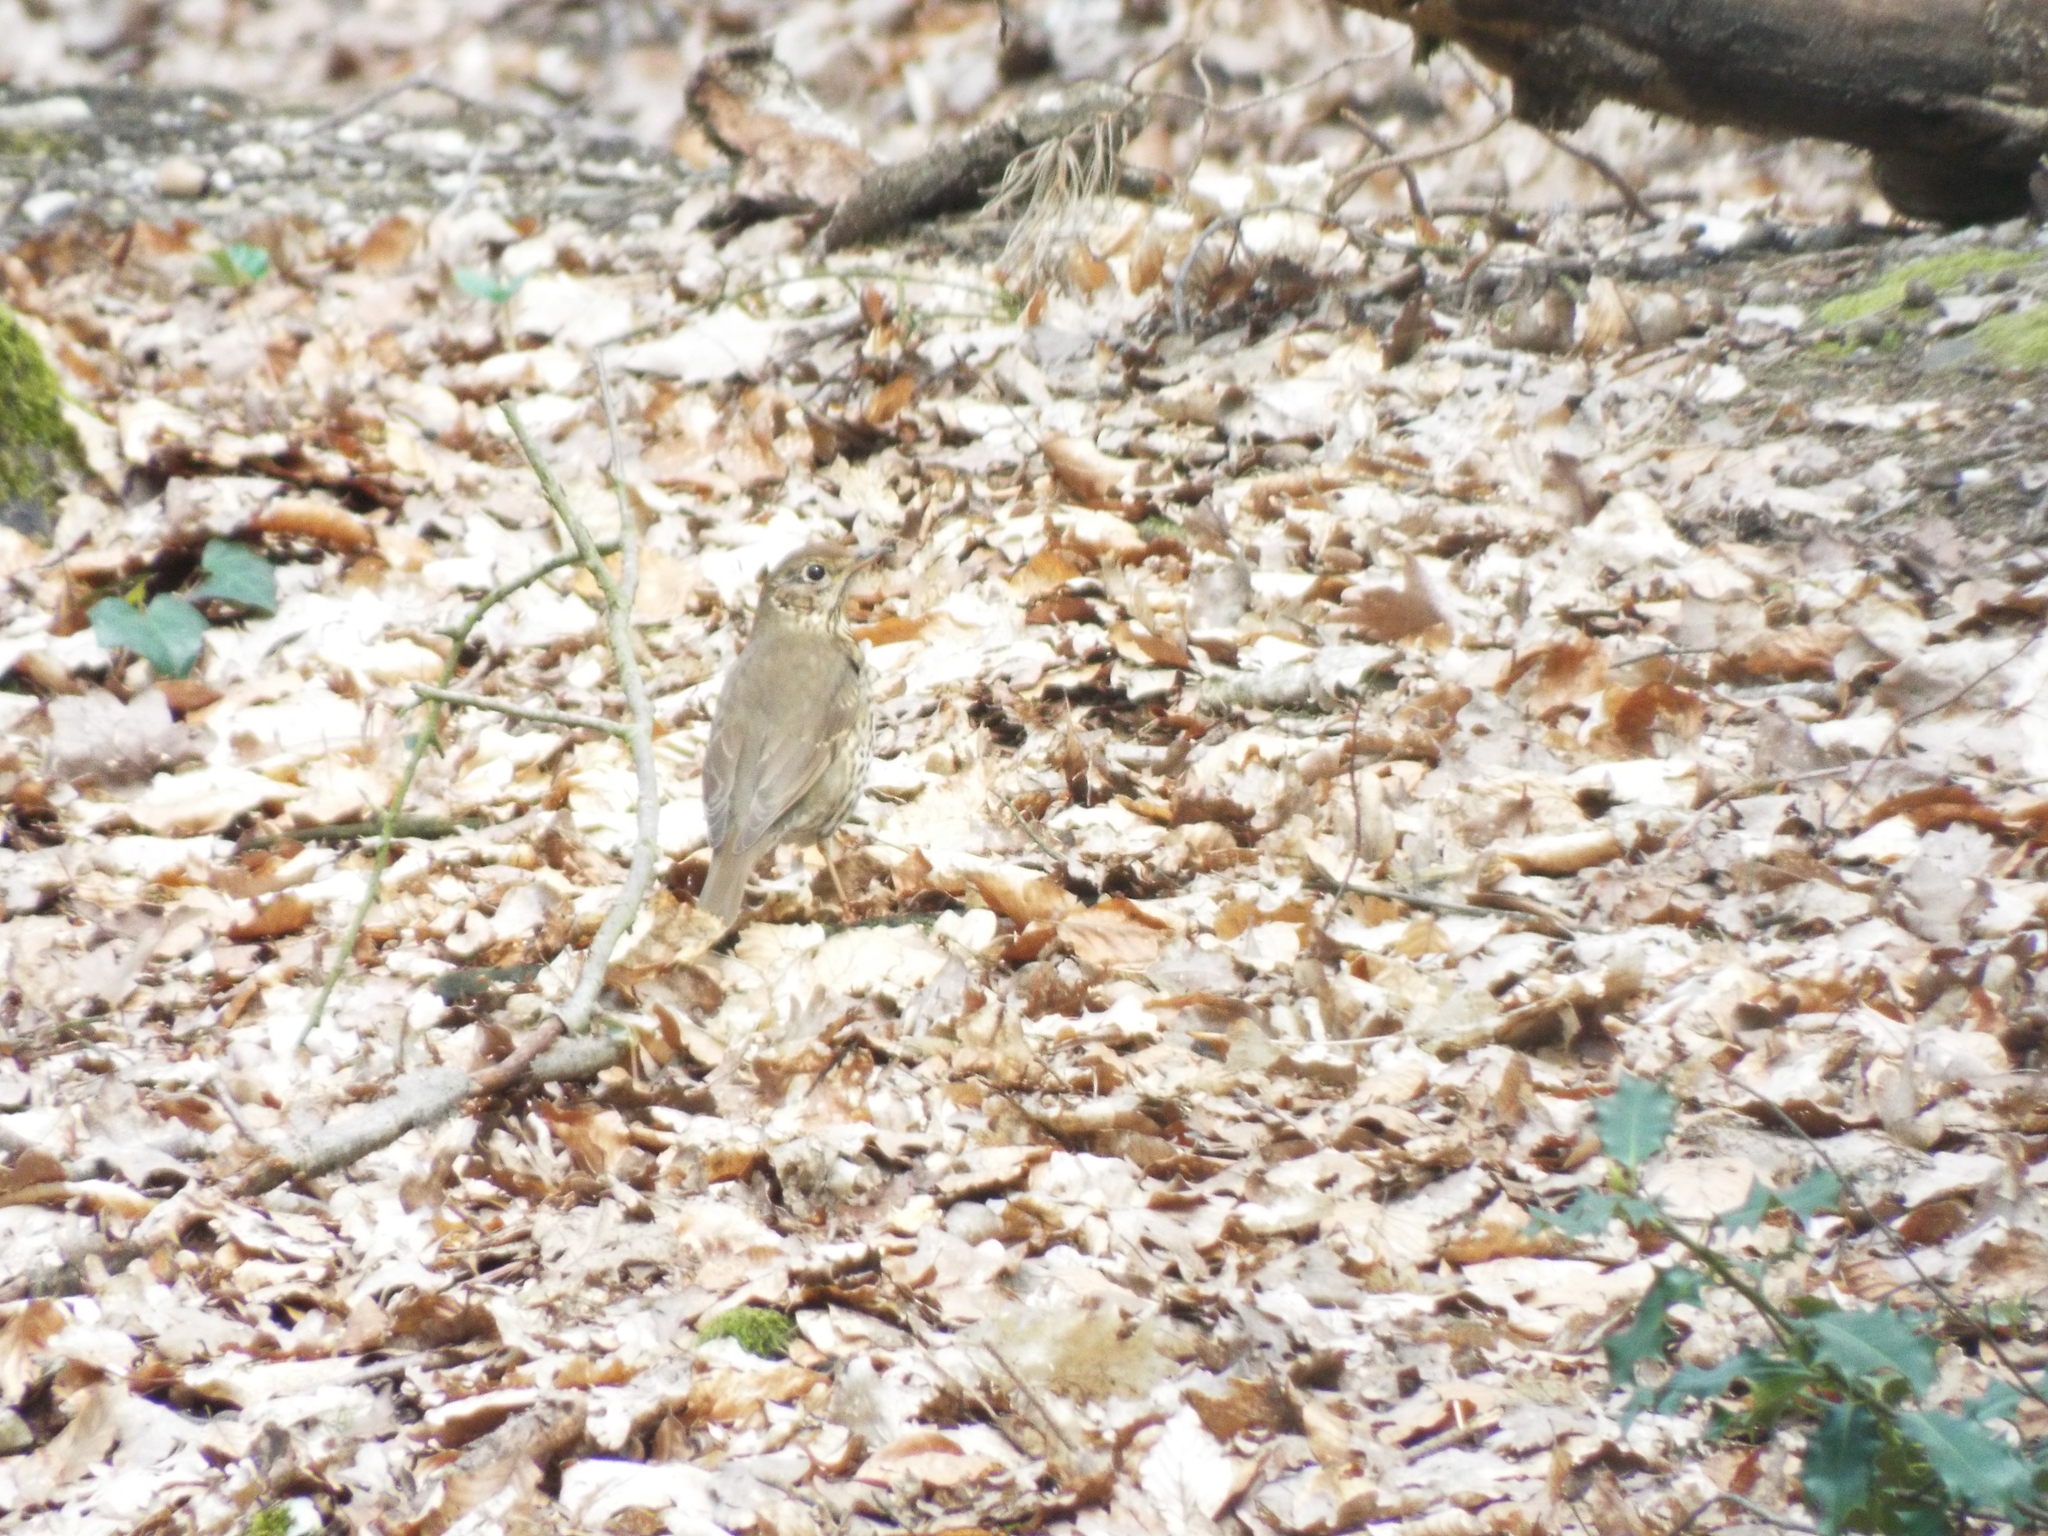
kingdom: Animalia
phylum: Chordata
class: Aves
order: Passeriformes
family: Turdidae
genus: Turdus
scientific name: Turdus philomelos
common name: Song thrush
